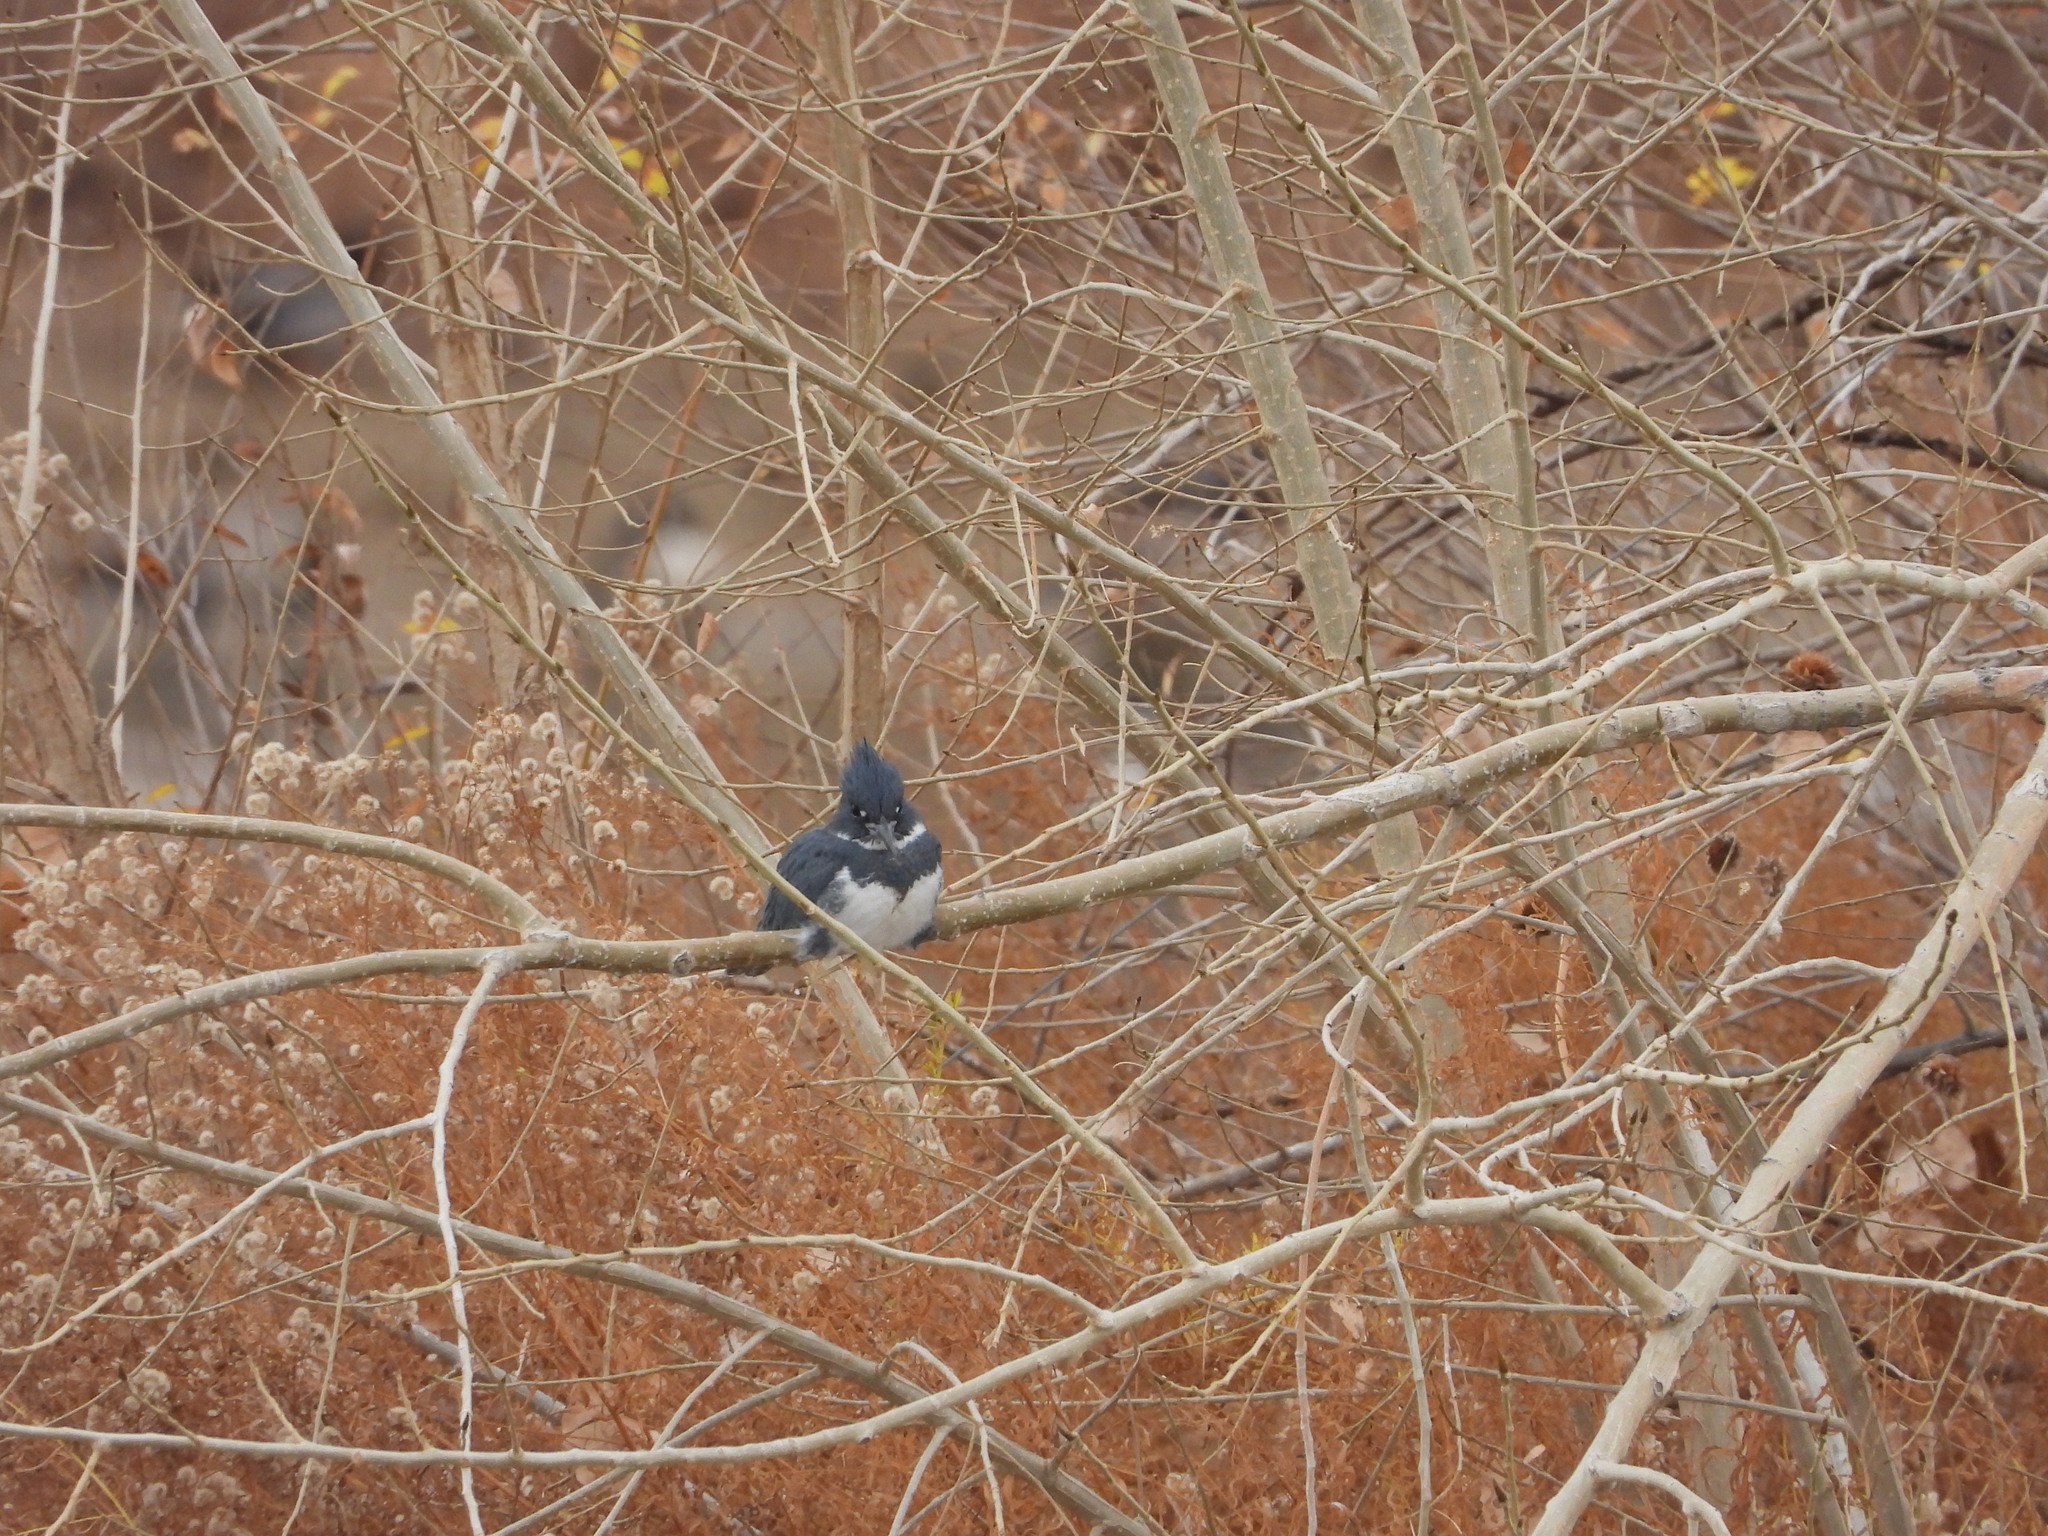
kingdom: Animalia
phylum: Chordata
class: Aves
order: Coraciiformes
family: Alcedinidae
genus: Megaceryle
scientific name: Megaceryle alcyon
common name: Belted kingfisher
